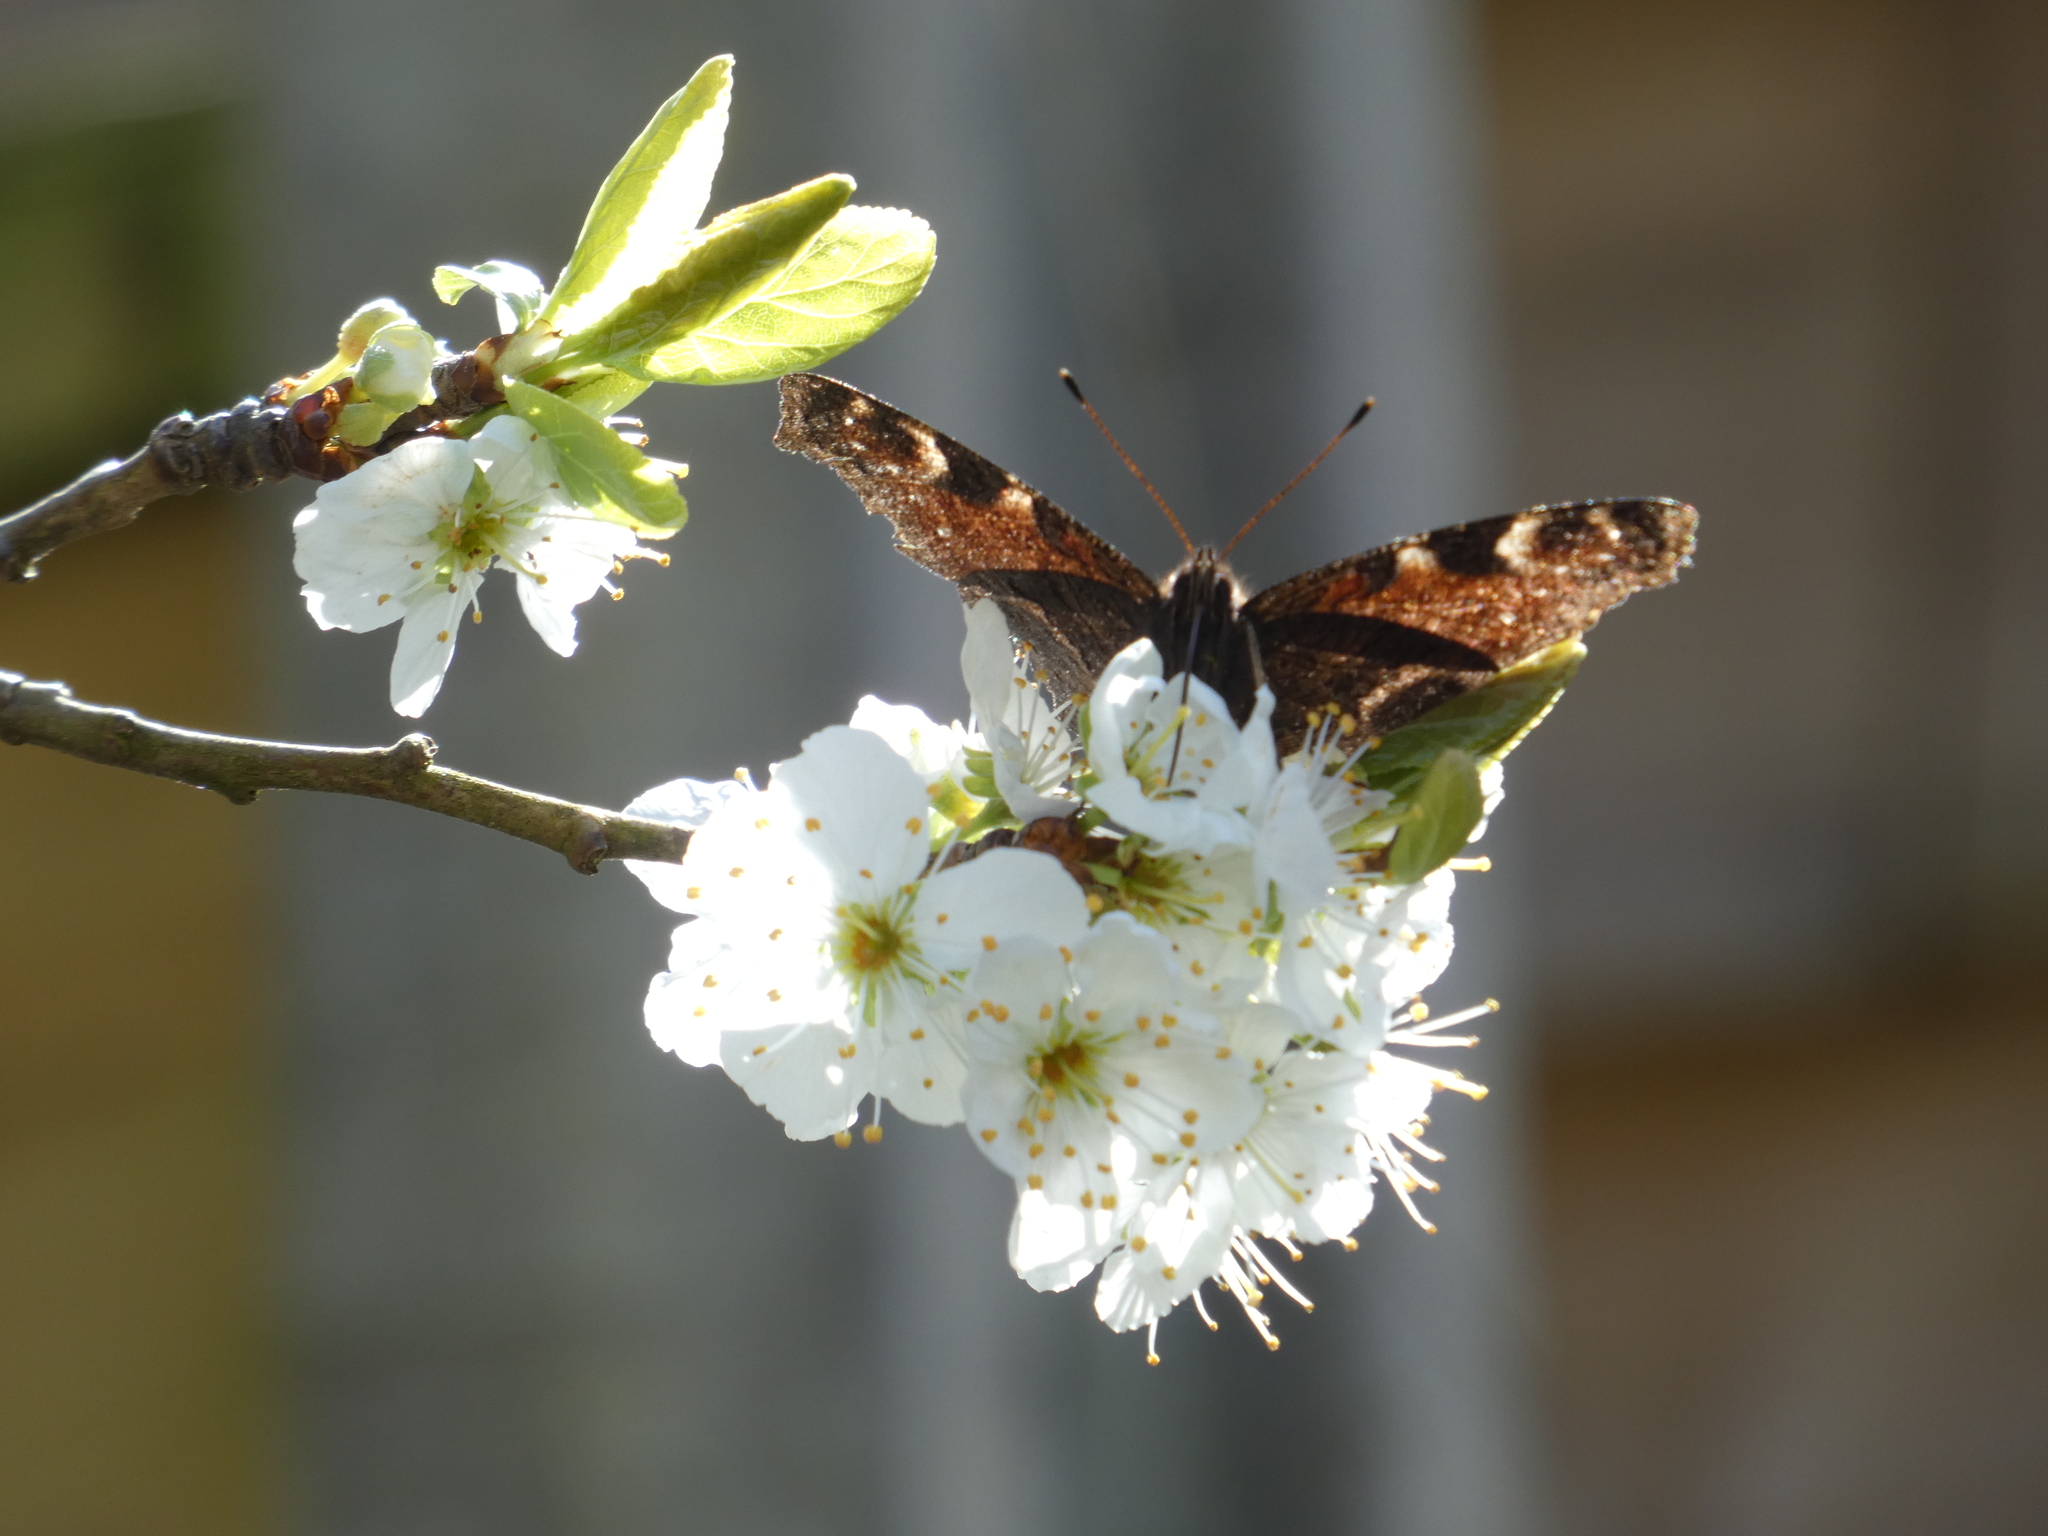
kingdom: Animalia
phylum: Arthropoda
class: Insecta
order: Lepidoptera
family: Nymphalidae
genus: Aglais
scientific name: Aglais io
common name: Peacock
